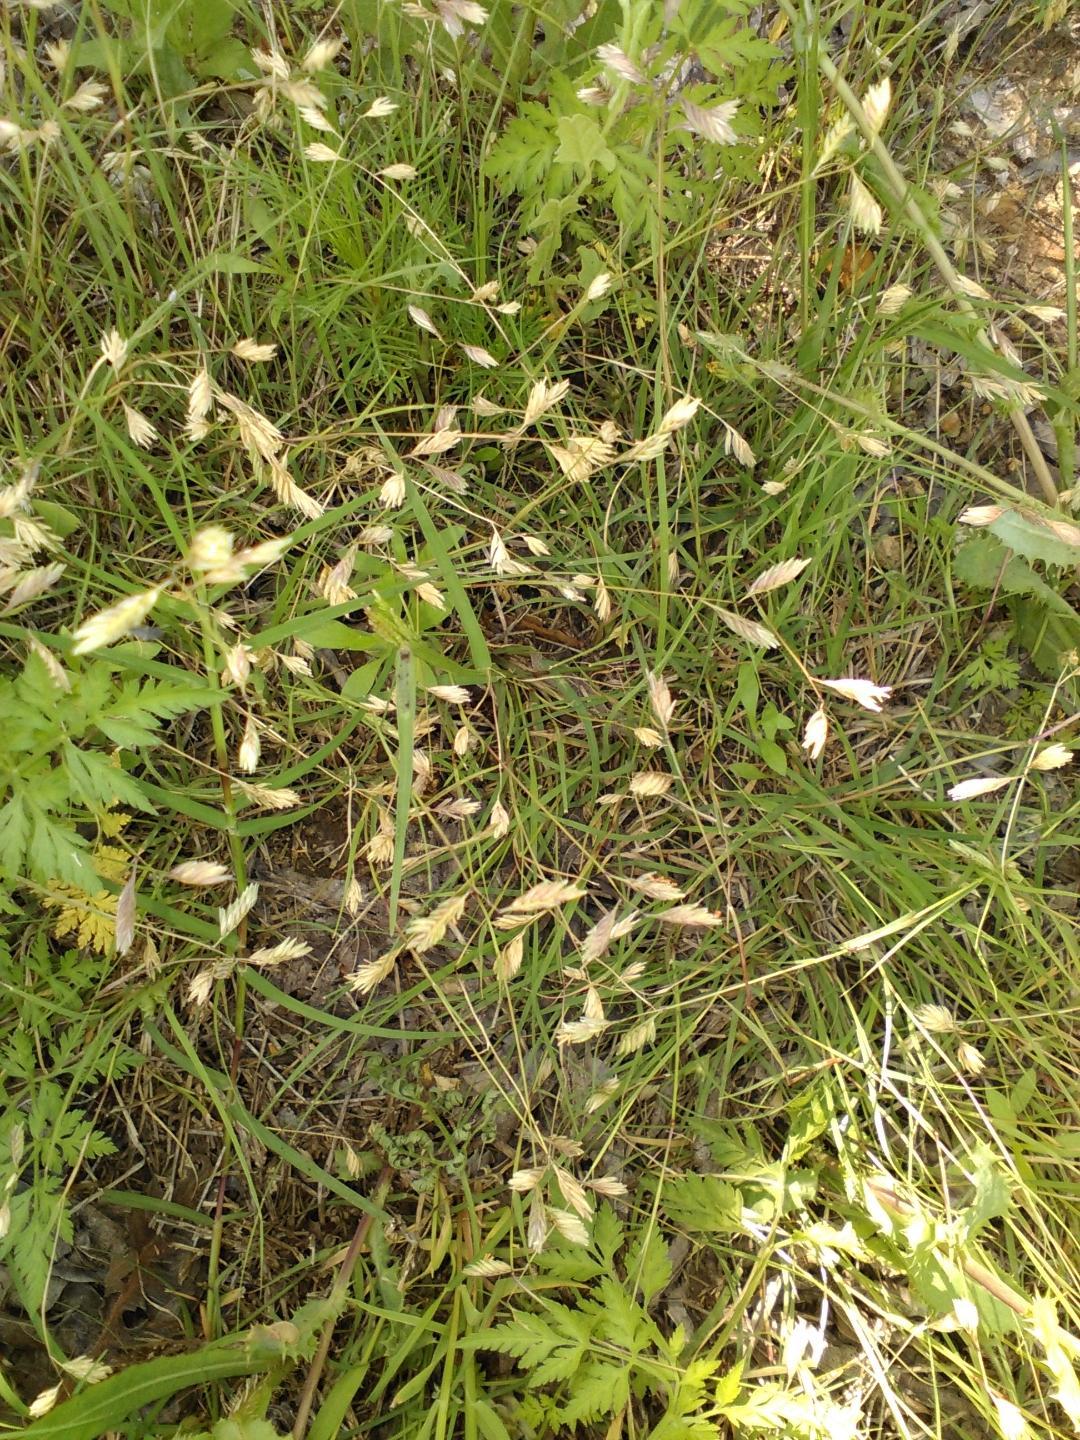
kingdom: Plantae
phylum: Tracheophyta
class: Liliopsida
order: Poales
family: Poaceae
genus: Bouteloua
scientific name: Bouteloua dactyloides
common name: Buffalo grass
